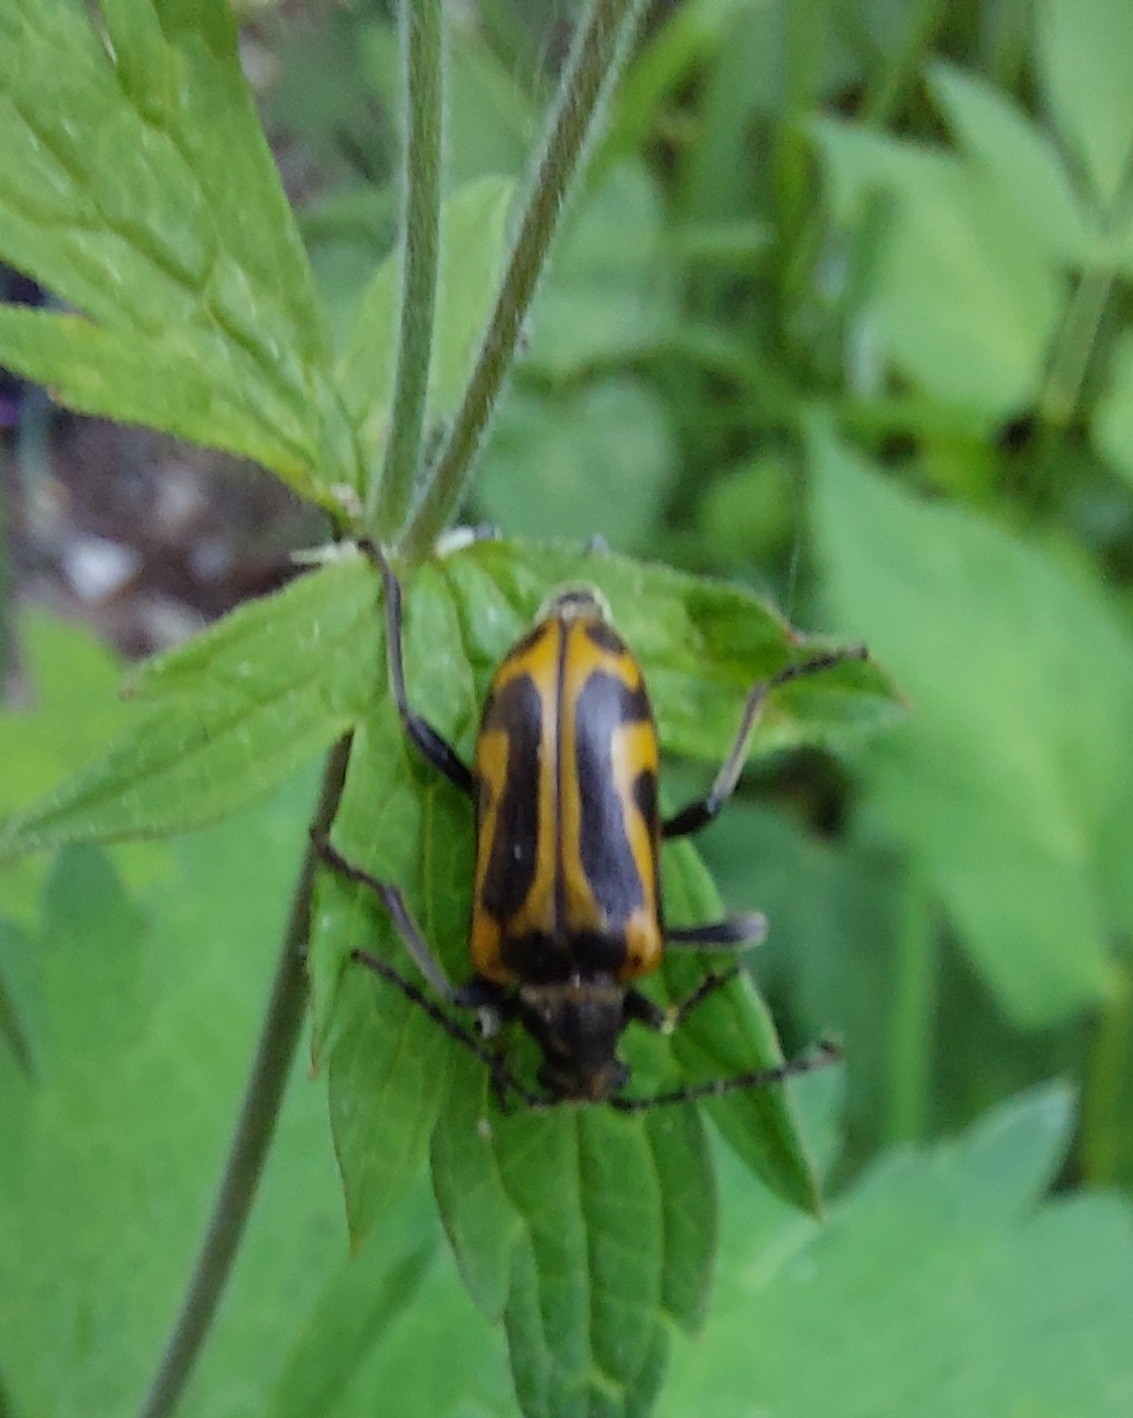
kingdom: Animalia
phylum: Arthropoda
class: Insecta
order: Coleoptera
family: Cerambycidae
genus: Brachyta
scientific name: Brachyta interrogationis
